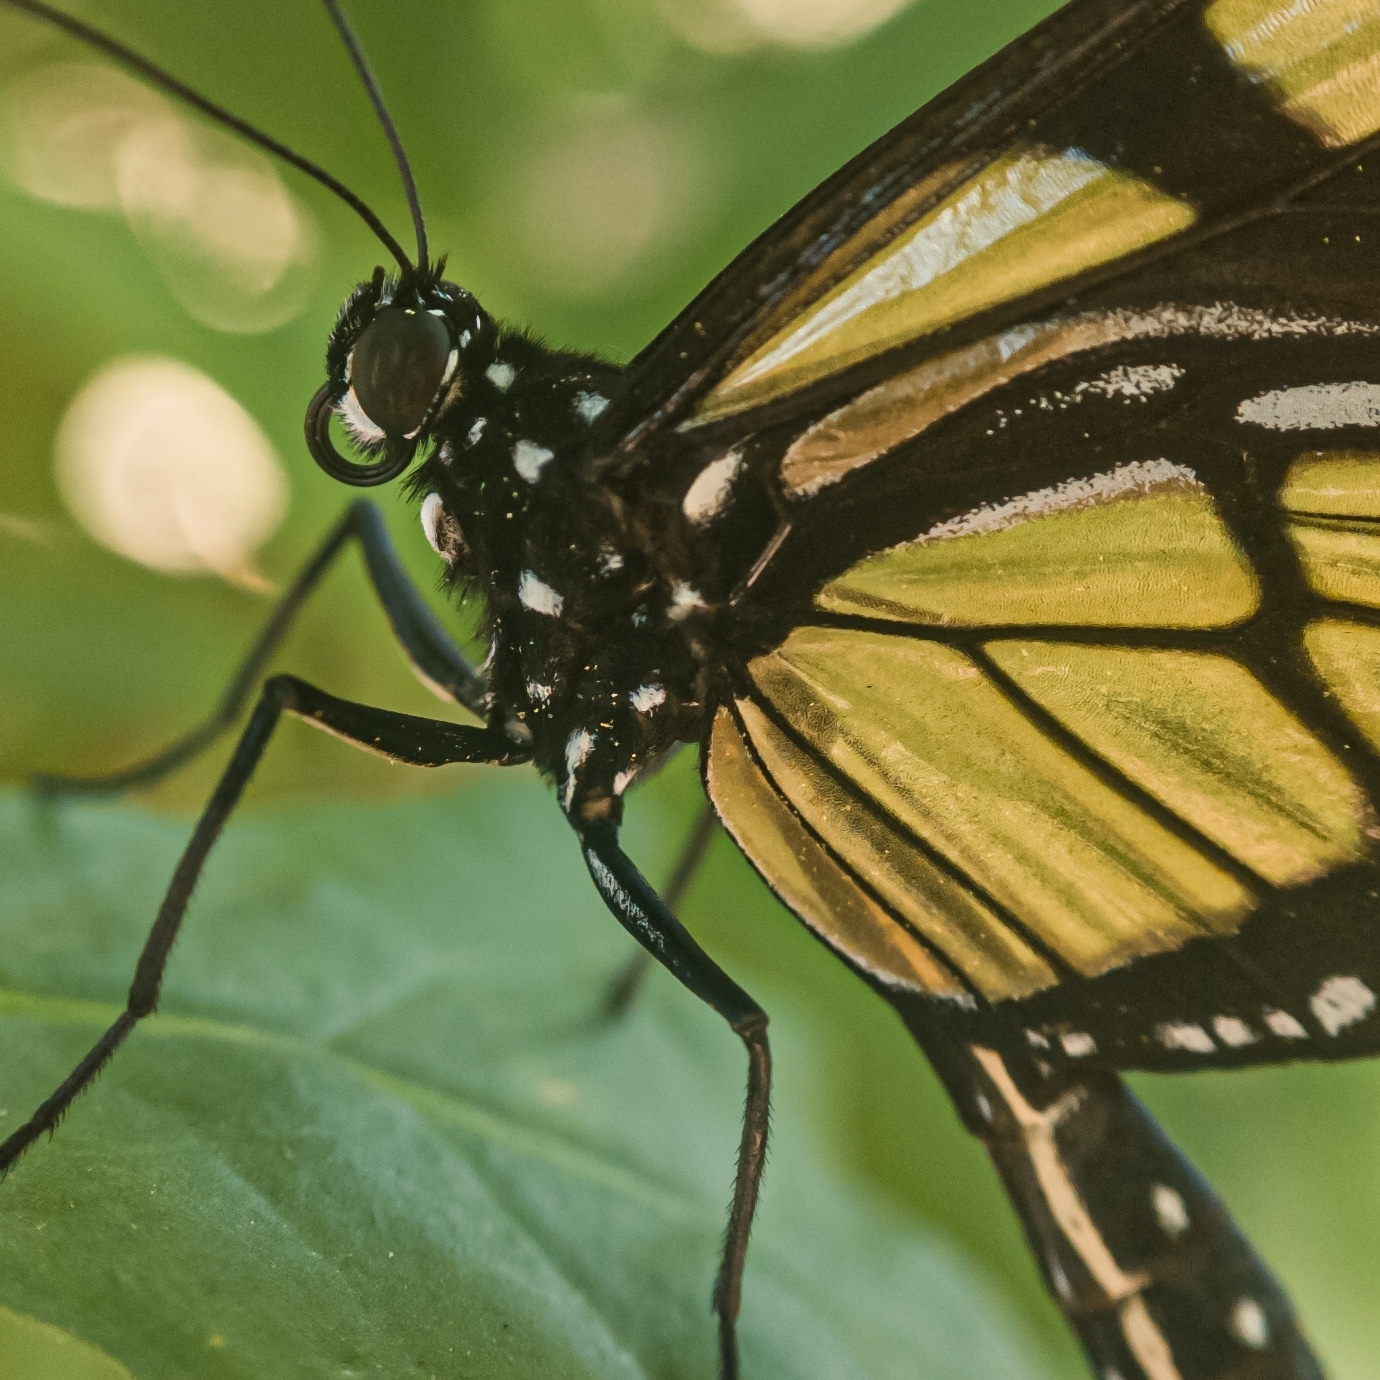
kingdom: Animalia
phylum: Arthropoda
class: Insecta
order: Lepidoptera
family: Nymphalidae
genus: Methona
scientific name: Methona themisto
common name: Themisto amberwing
